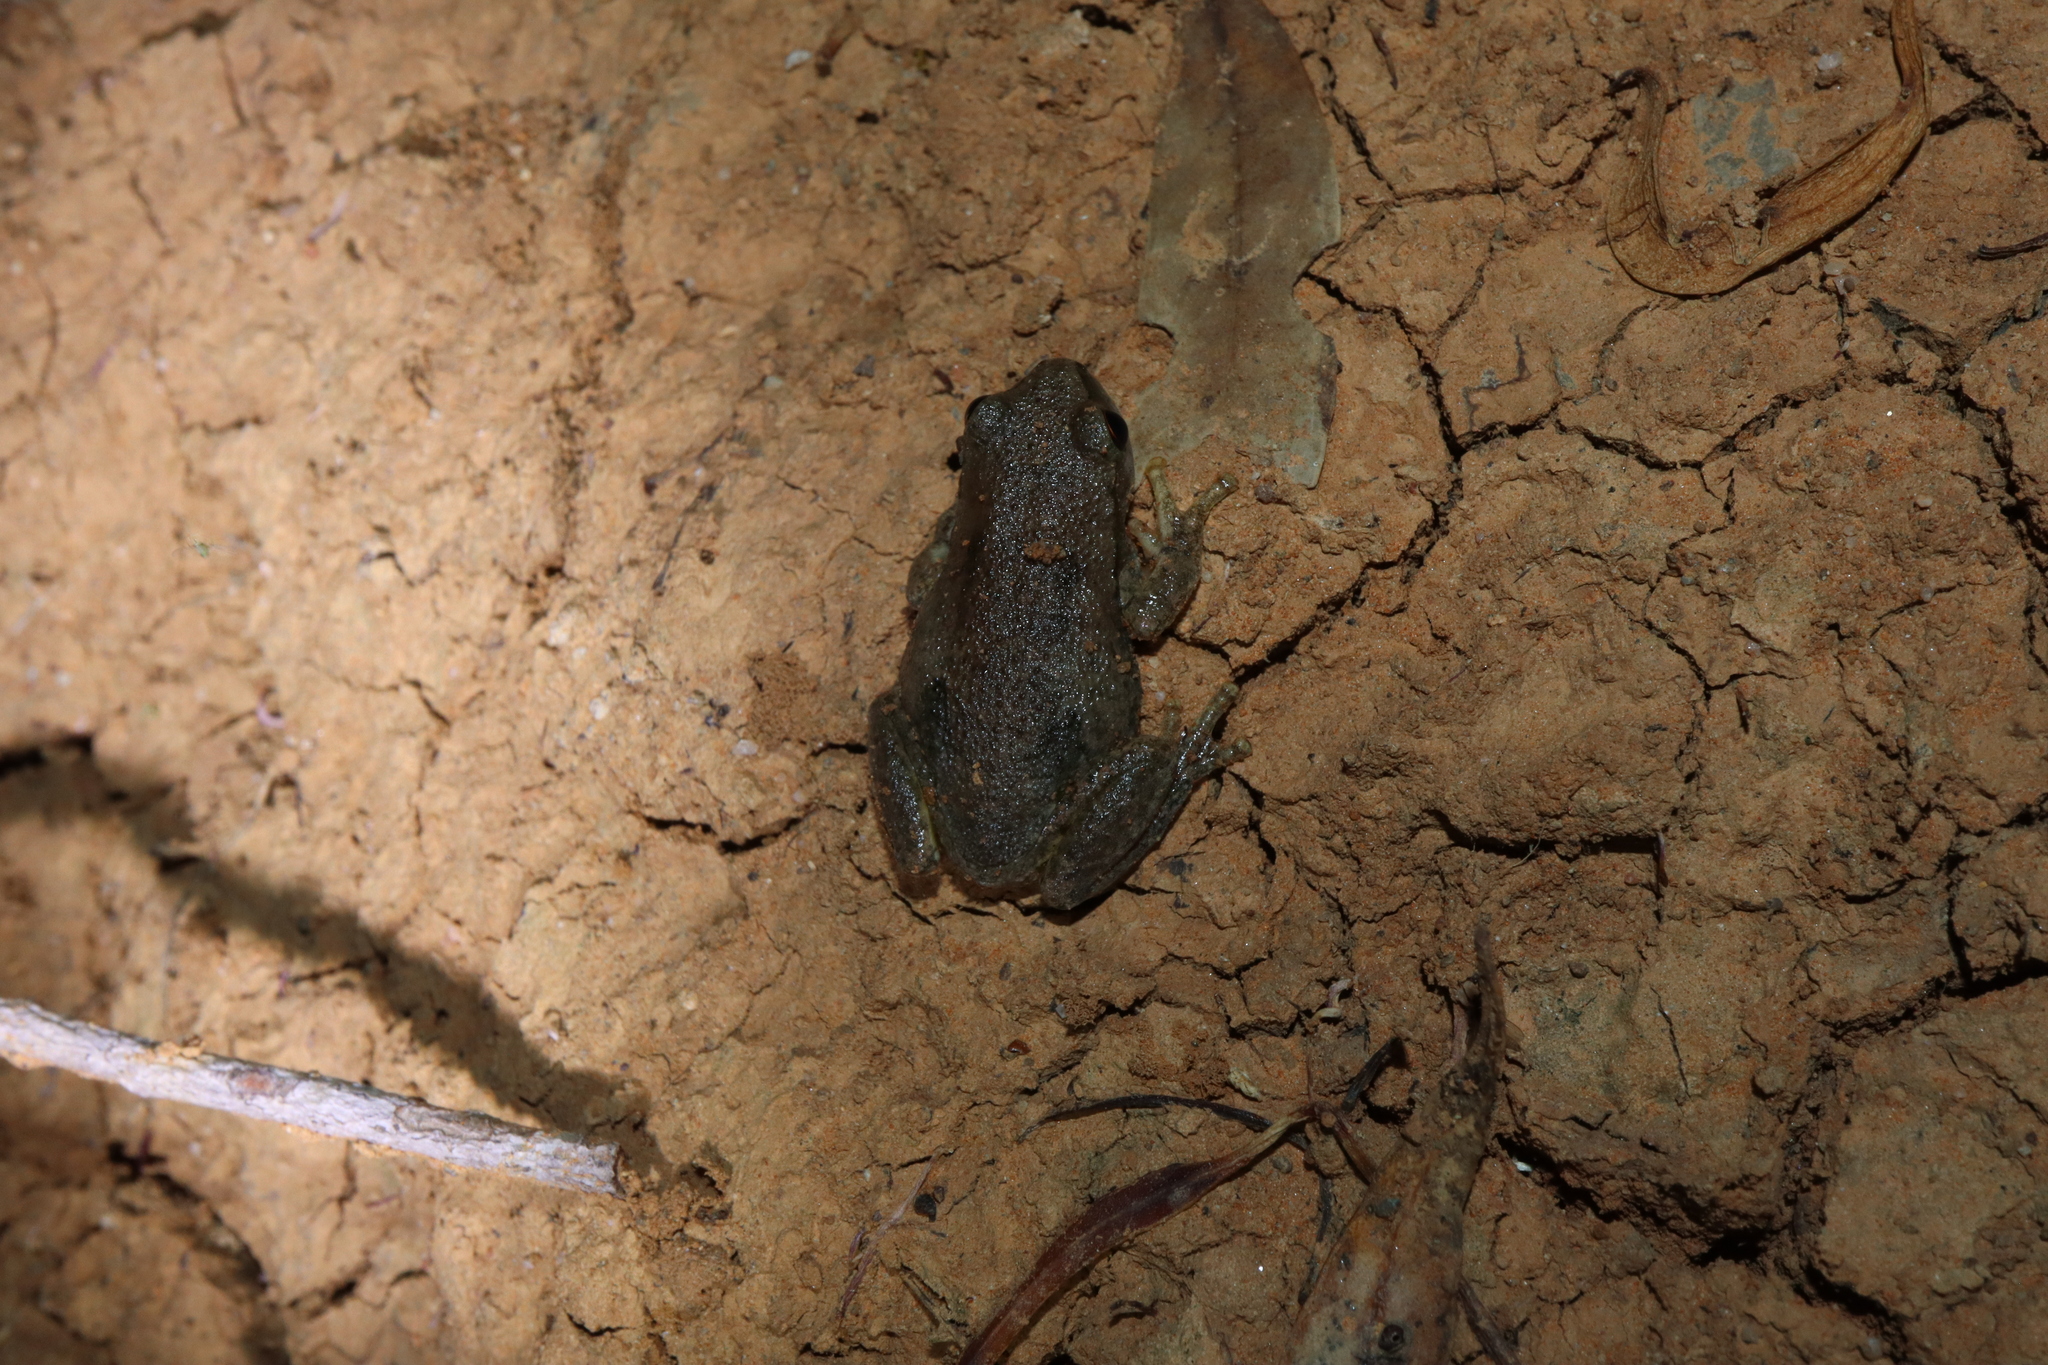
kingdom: Animalia
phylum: Chordata
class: Amphibia
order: Anura
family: Pelodryadidae
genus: Litoria
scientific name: Litoria rubella
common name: Desert tree frog
